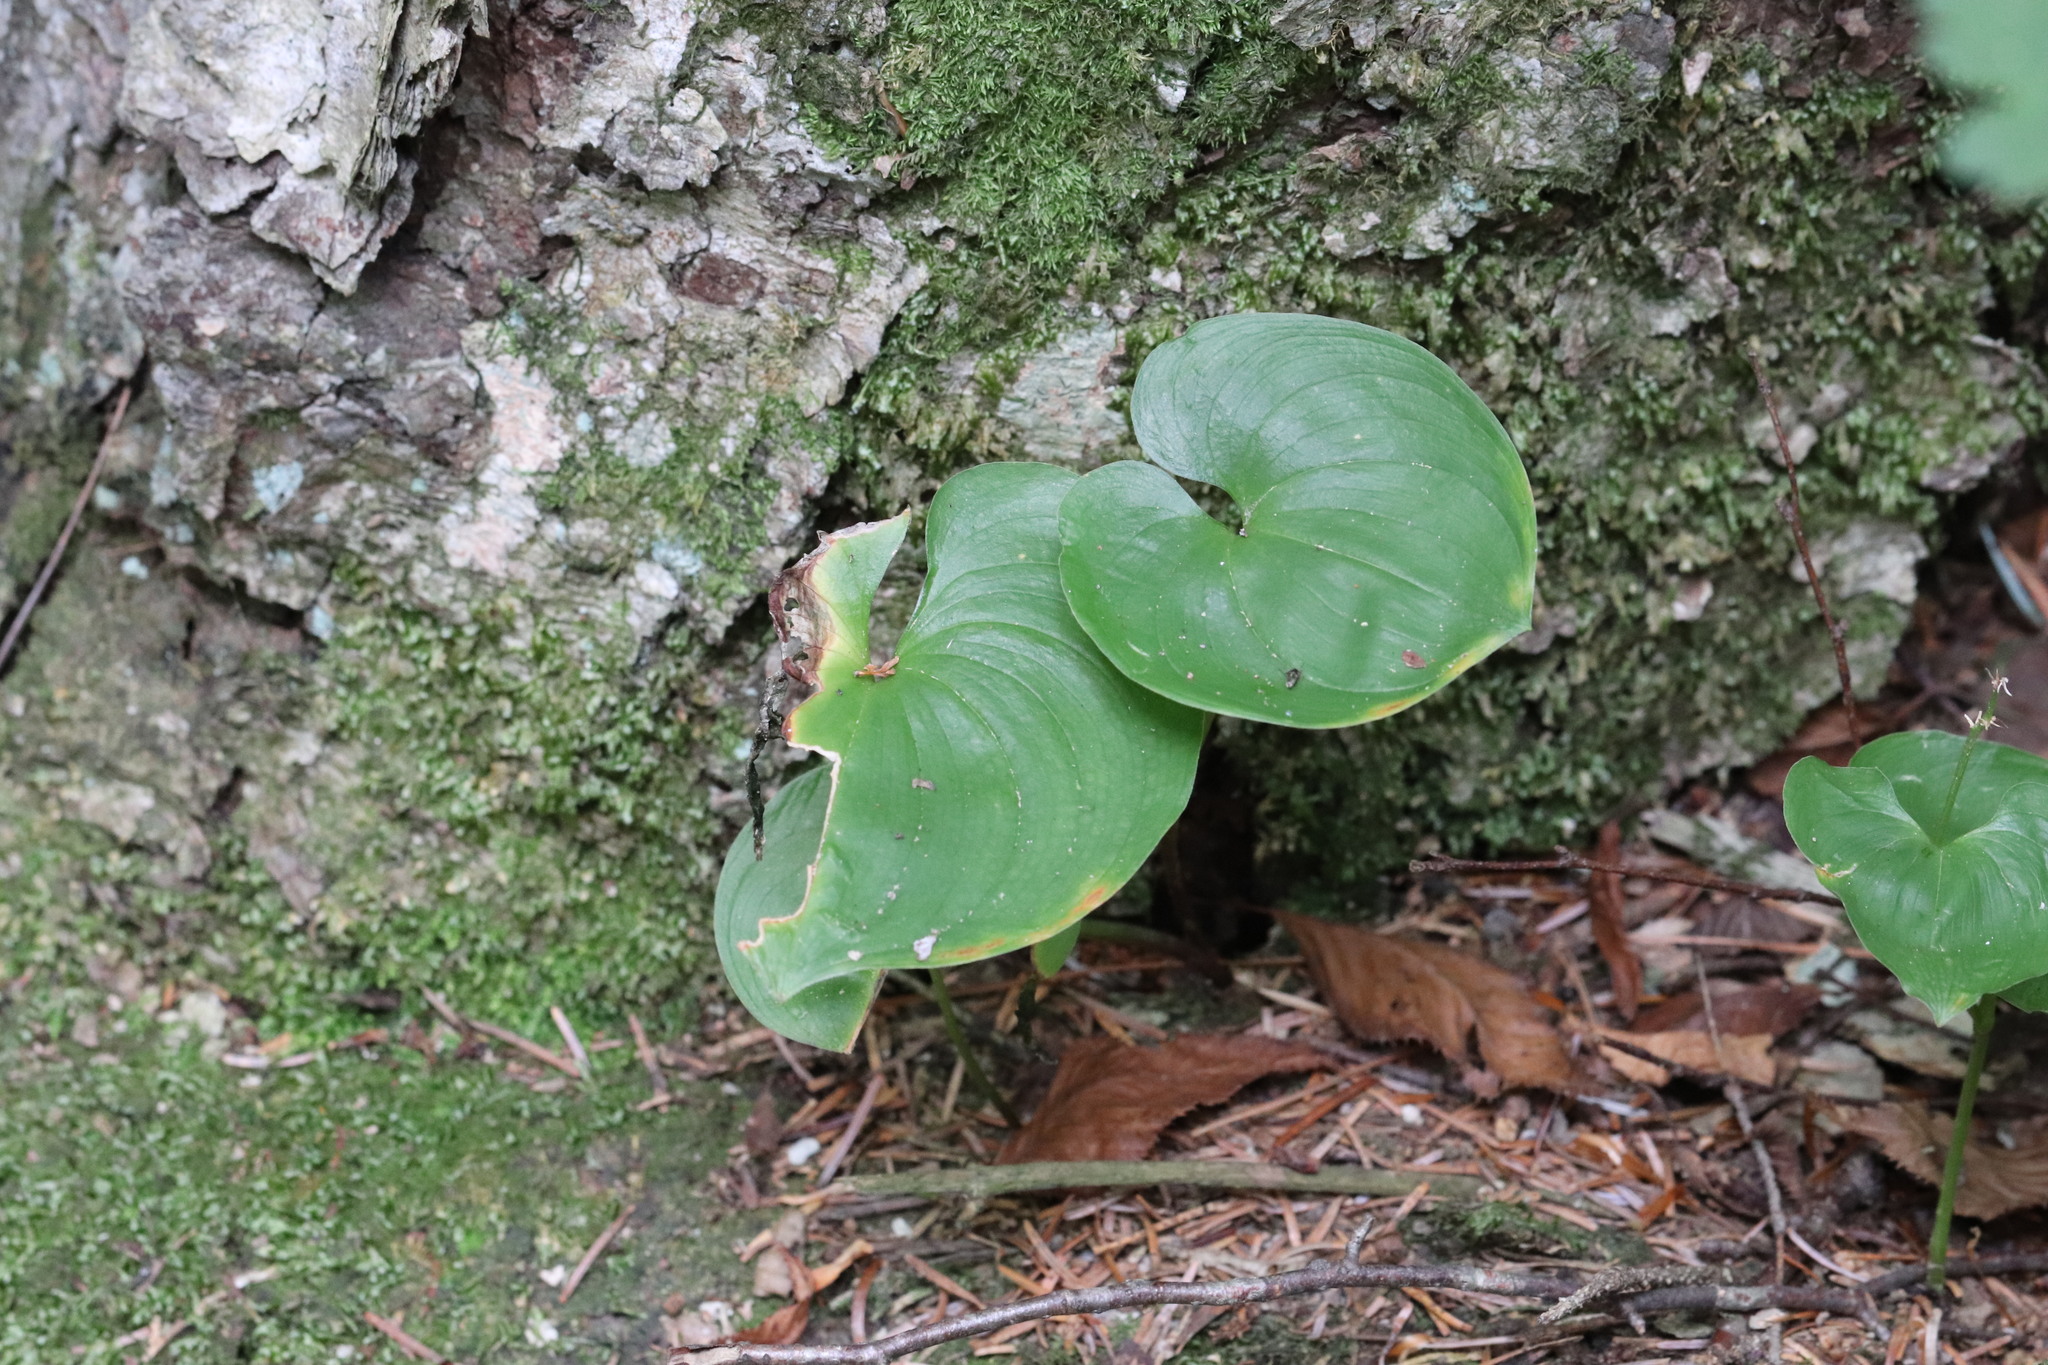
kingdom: Plantae
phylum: Tracheophyta
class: Liliopsida
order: Asparagales
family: Asparagaceae
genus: Maianthemum
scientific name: Maianthemum dilatatum
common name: False lily-of-the-valley
